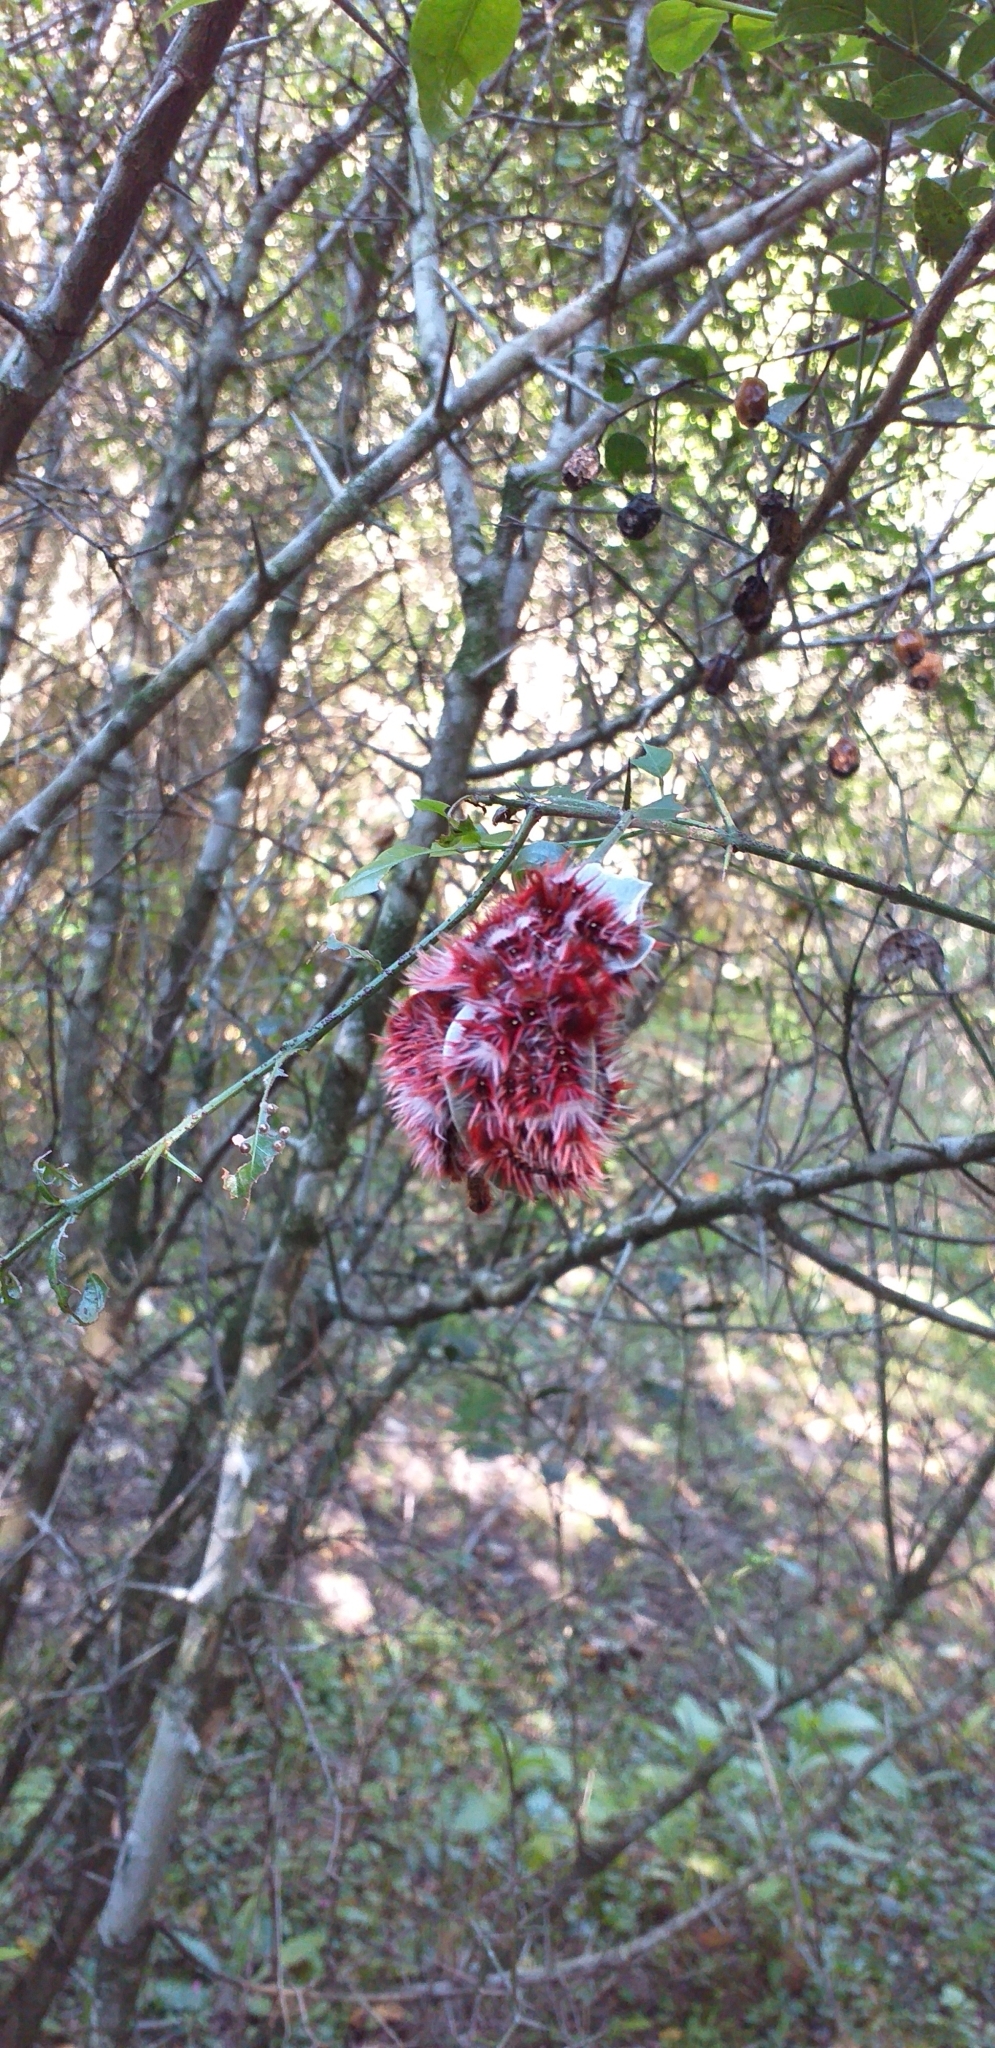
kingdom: Animalia
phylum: Arthropoda
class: Insecta
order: Lepidoptera
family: Nymphalidae
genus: Morpho
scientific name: Morpho epistrophus
